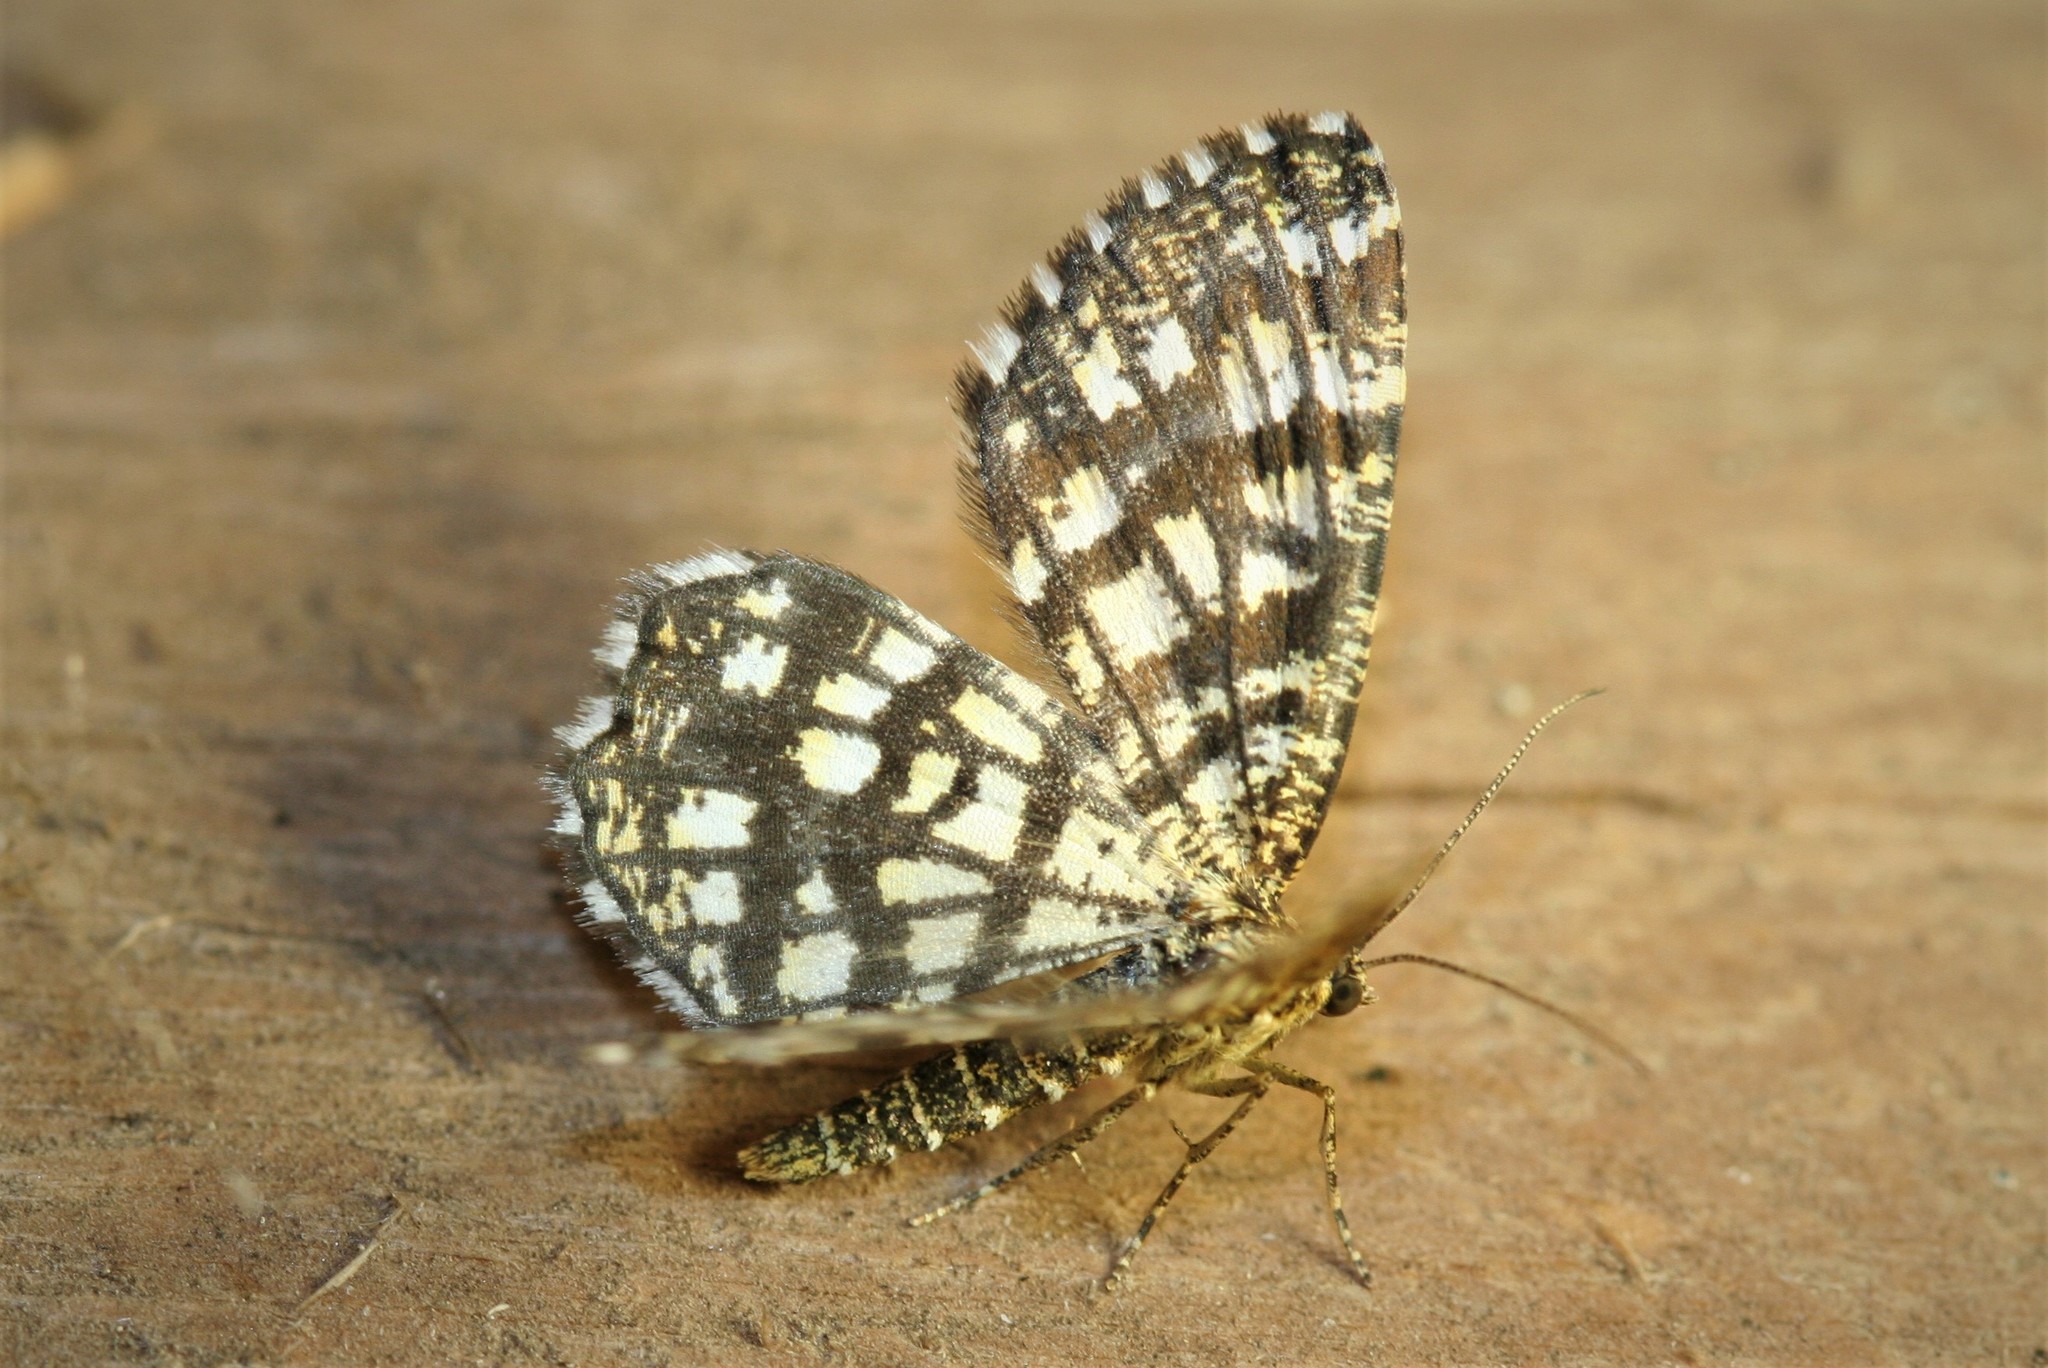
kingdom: Animalia
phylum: Arthropoda
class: Insecta
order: Lepidoptera
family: Geometridae
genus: Chiasmia
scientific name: Chiasmia clathrata
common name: Latticed heath
